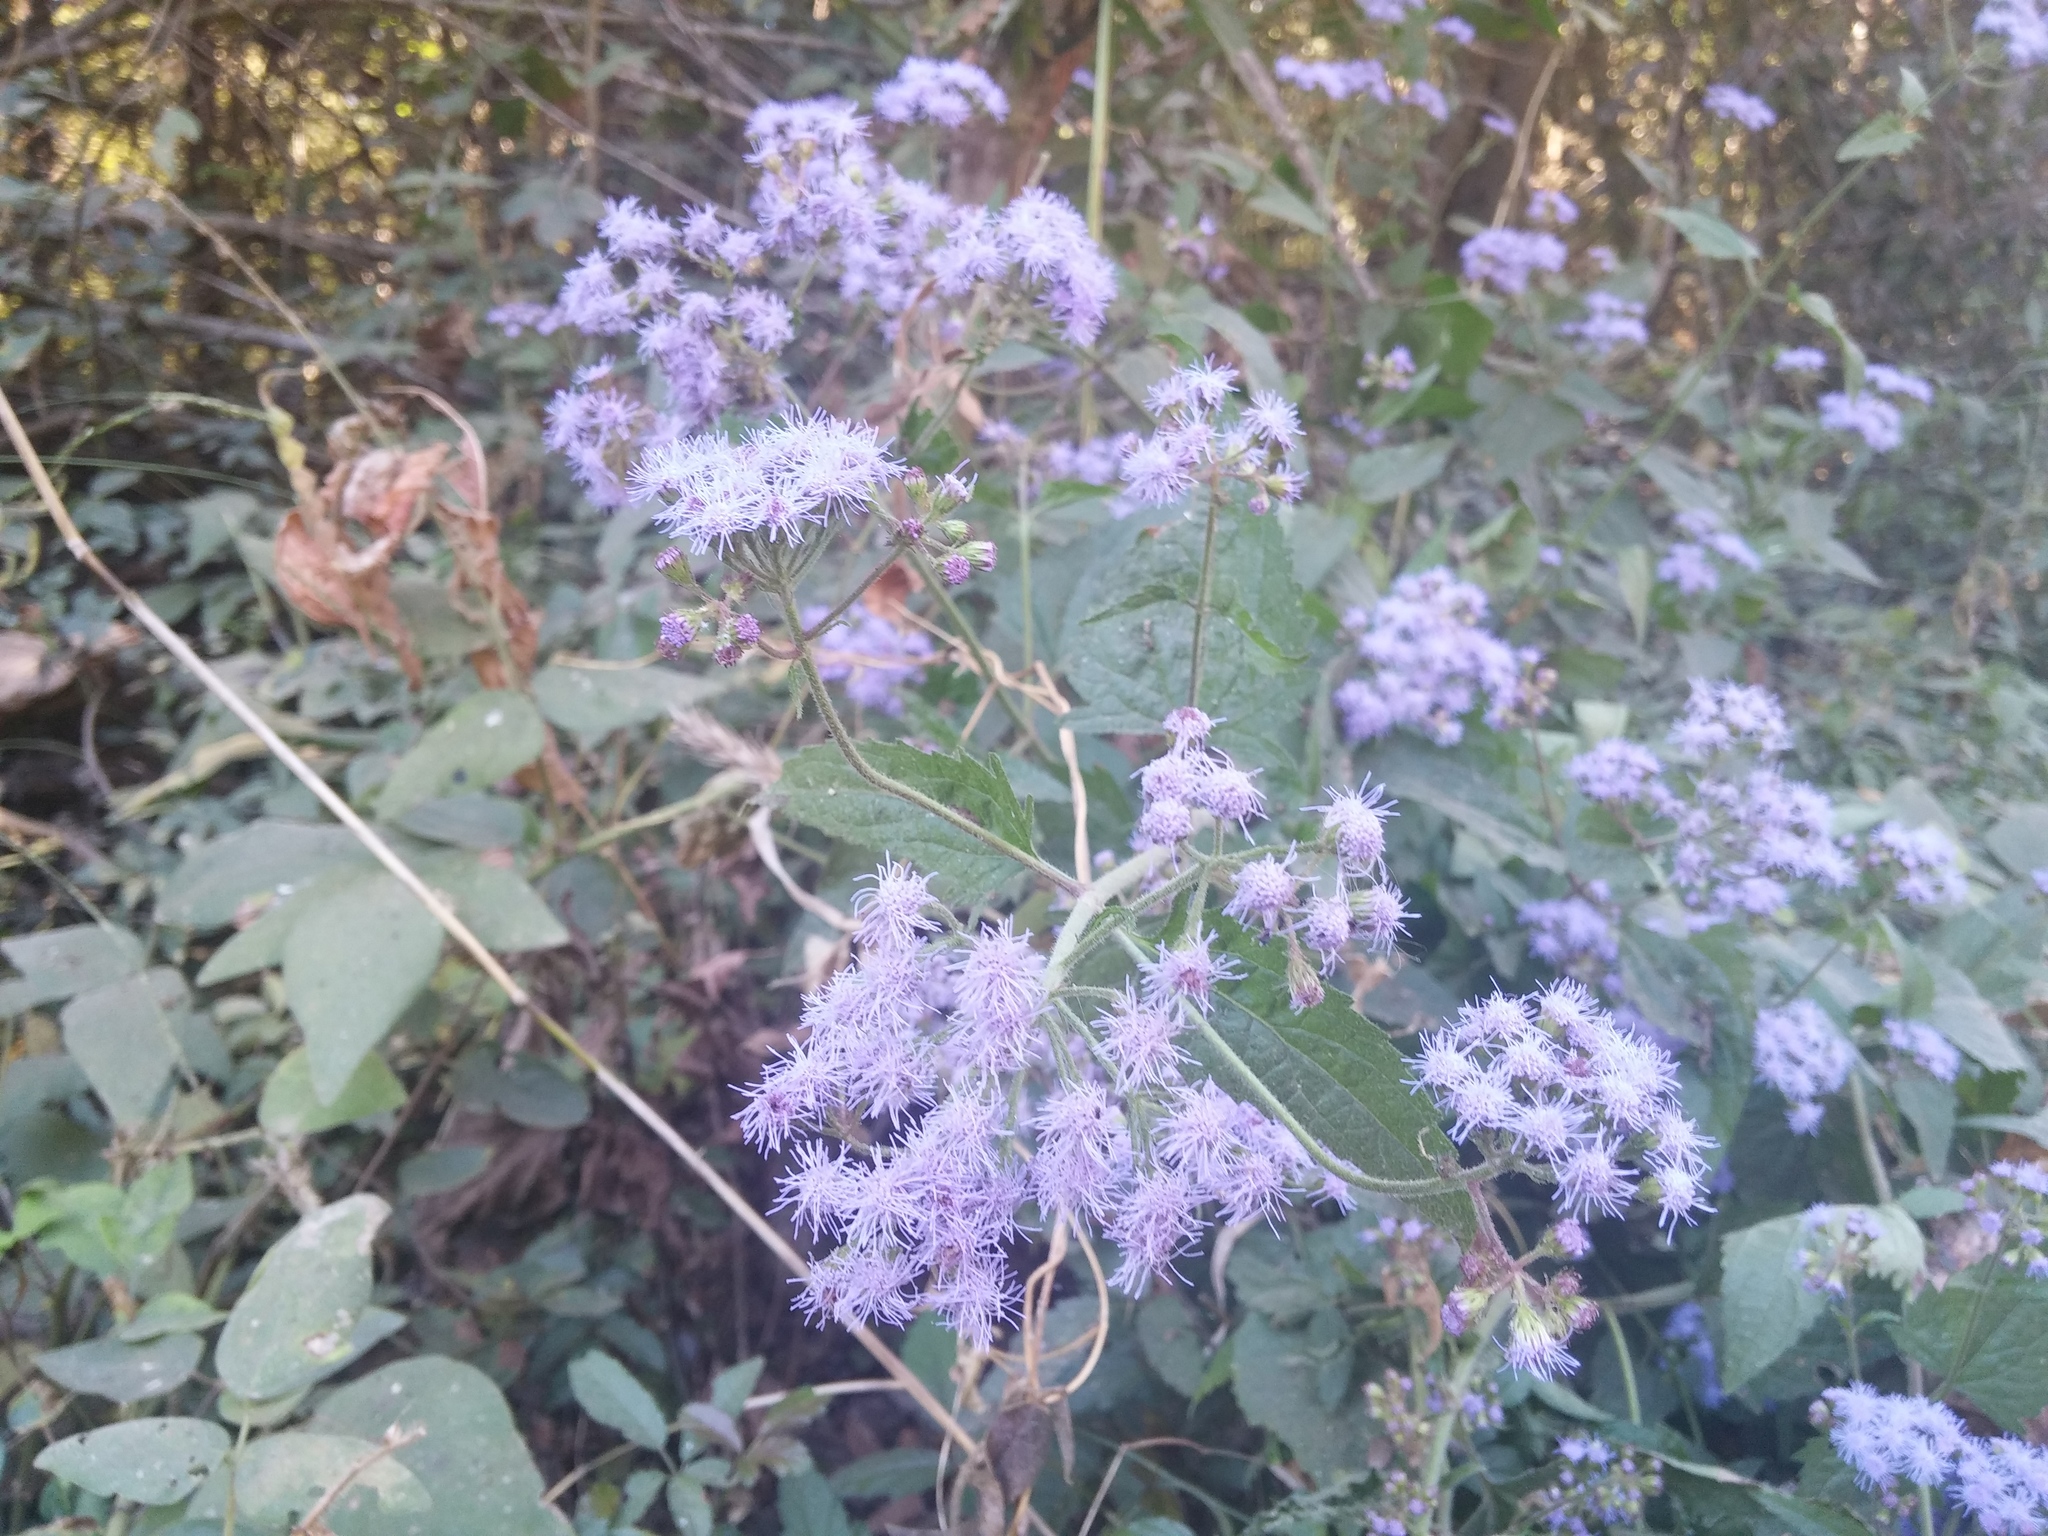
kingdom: Plantae
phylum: Tracheophyta
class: Magnoliopsida
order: Asterales
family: Asteraceae
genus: Conoclinium
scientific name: Conoclinium coelestinum
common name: Blue mistflower
